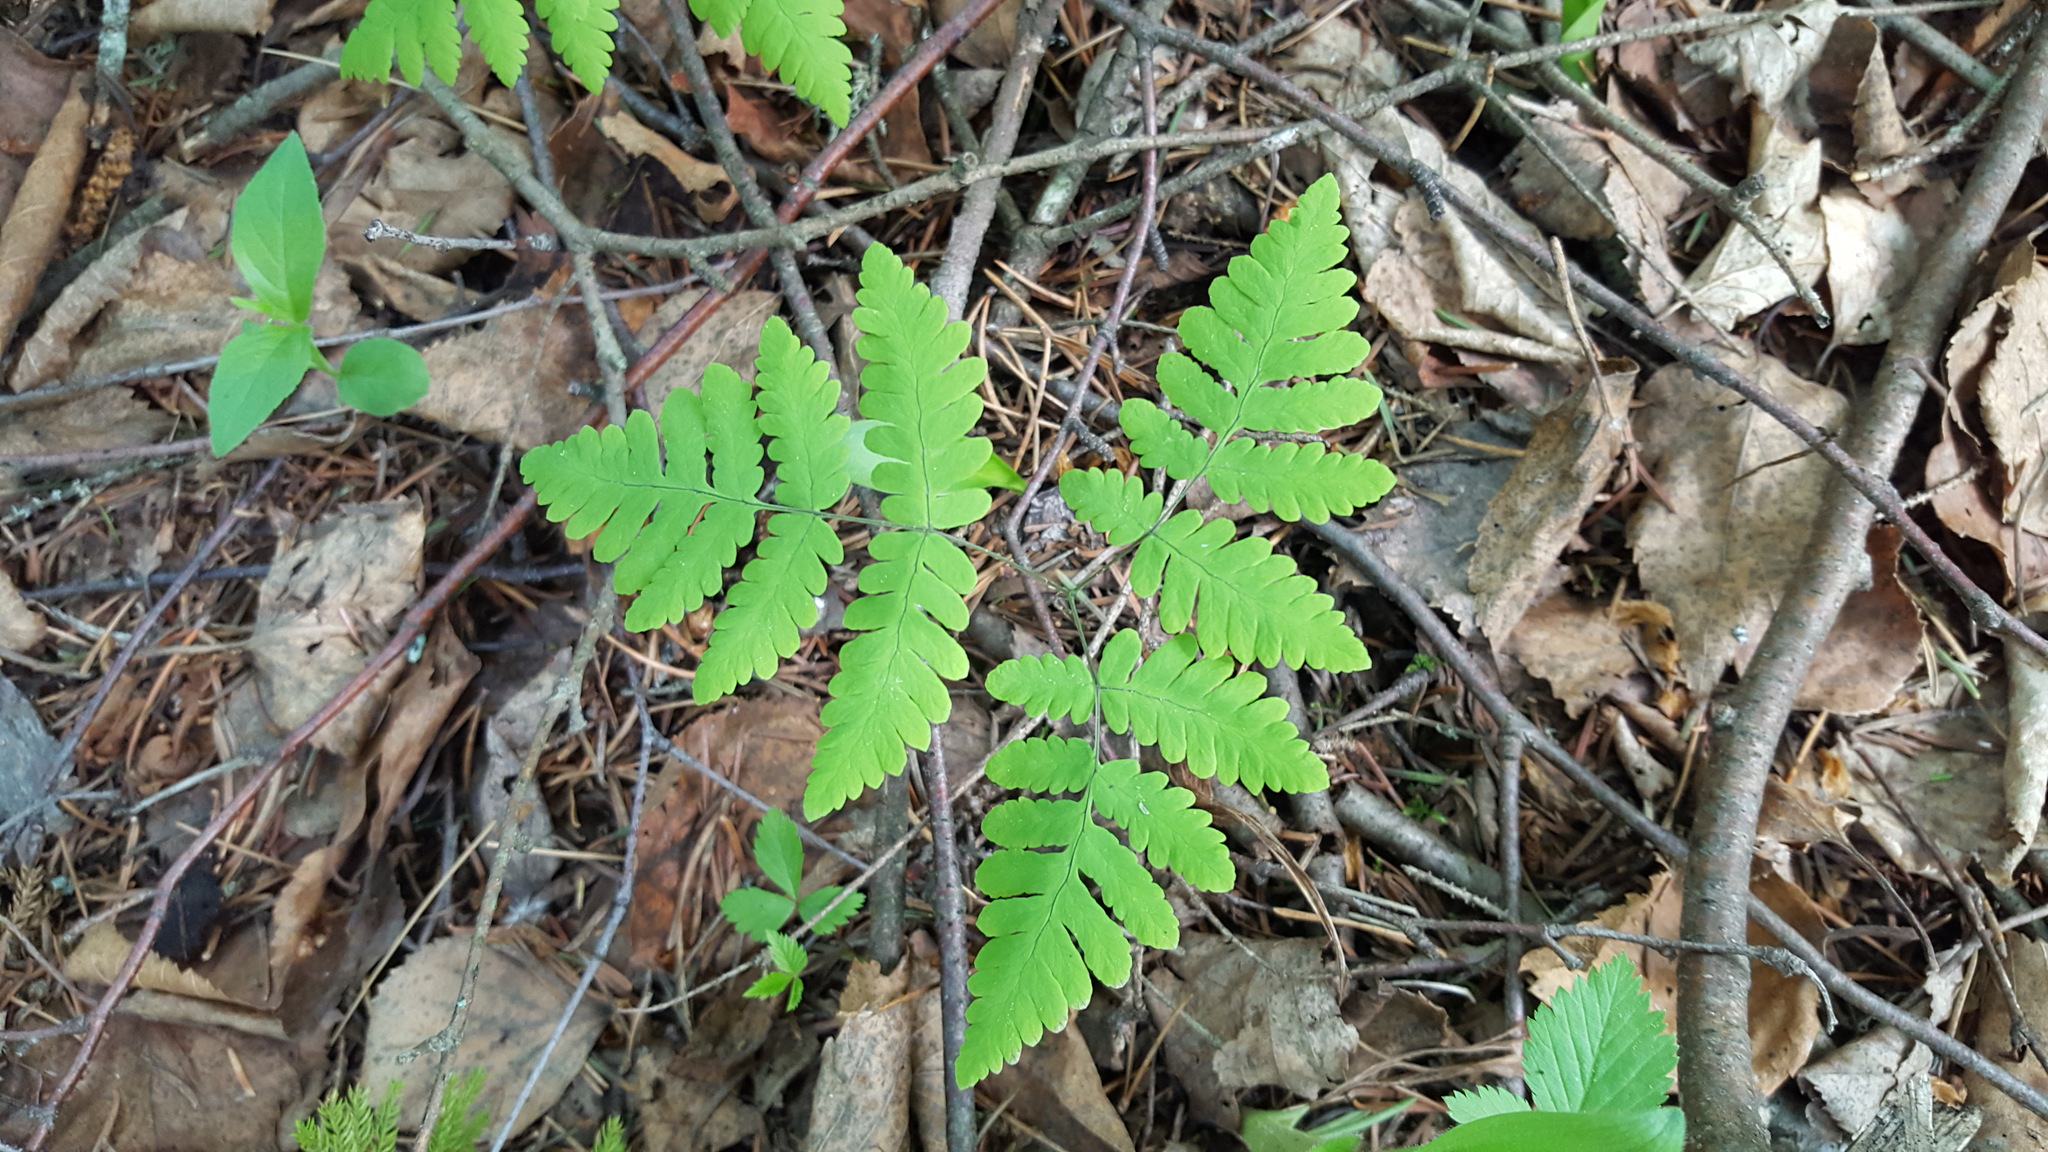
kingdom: Plantae
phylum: Tracheophyta
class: Polypodiopsida
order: Polypodiales
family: Cystopteridaceae
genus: Gymnocarpium
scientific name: Gymnocarpium dryopteris
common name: Oak fern
